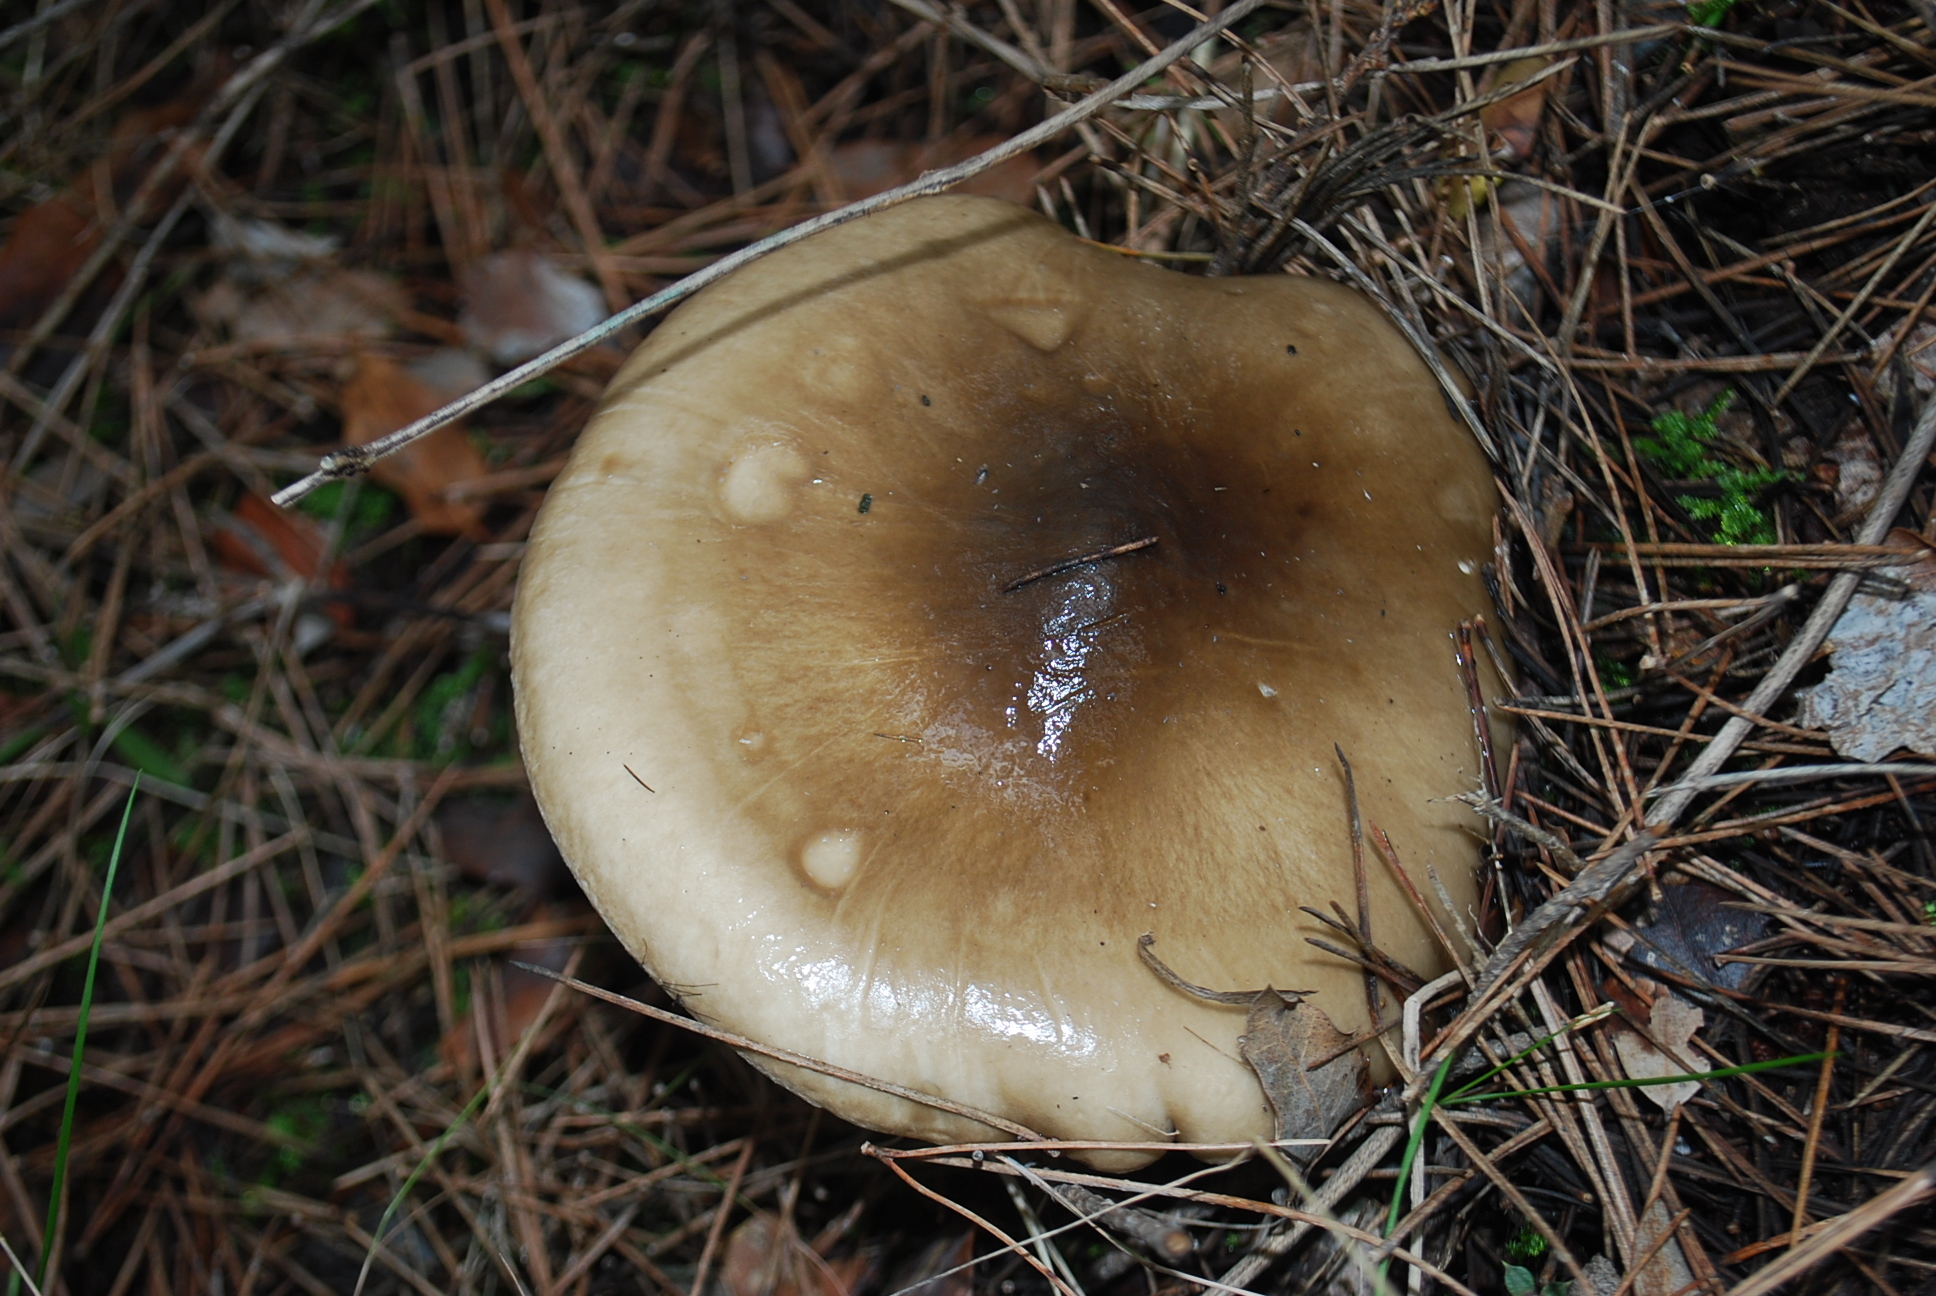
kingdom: Fungi
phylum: Basidiomycota
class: Agaricomycetes
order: Agaricales
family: Hygrophoraceae
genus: Hygrophorus
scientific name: Hygrophorus limacinus
